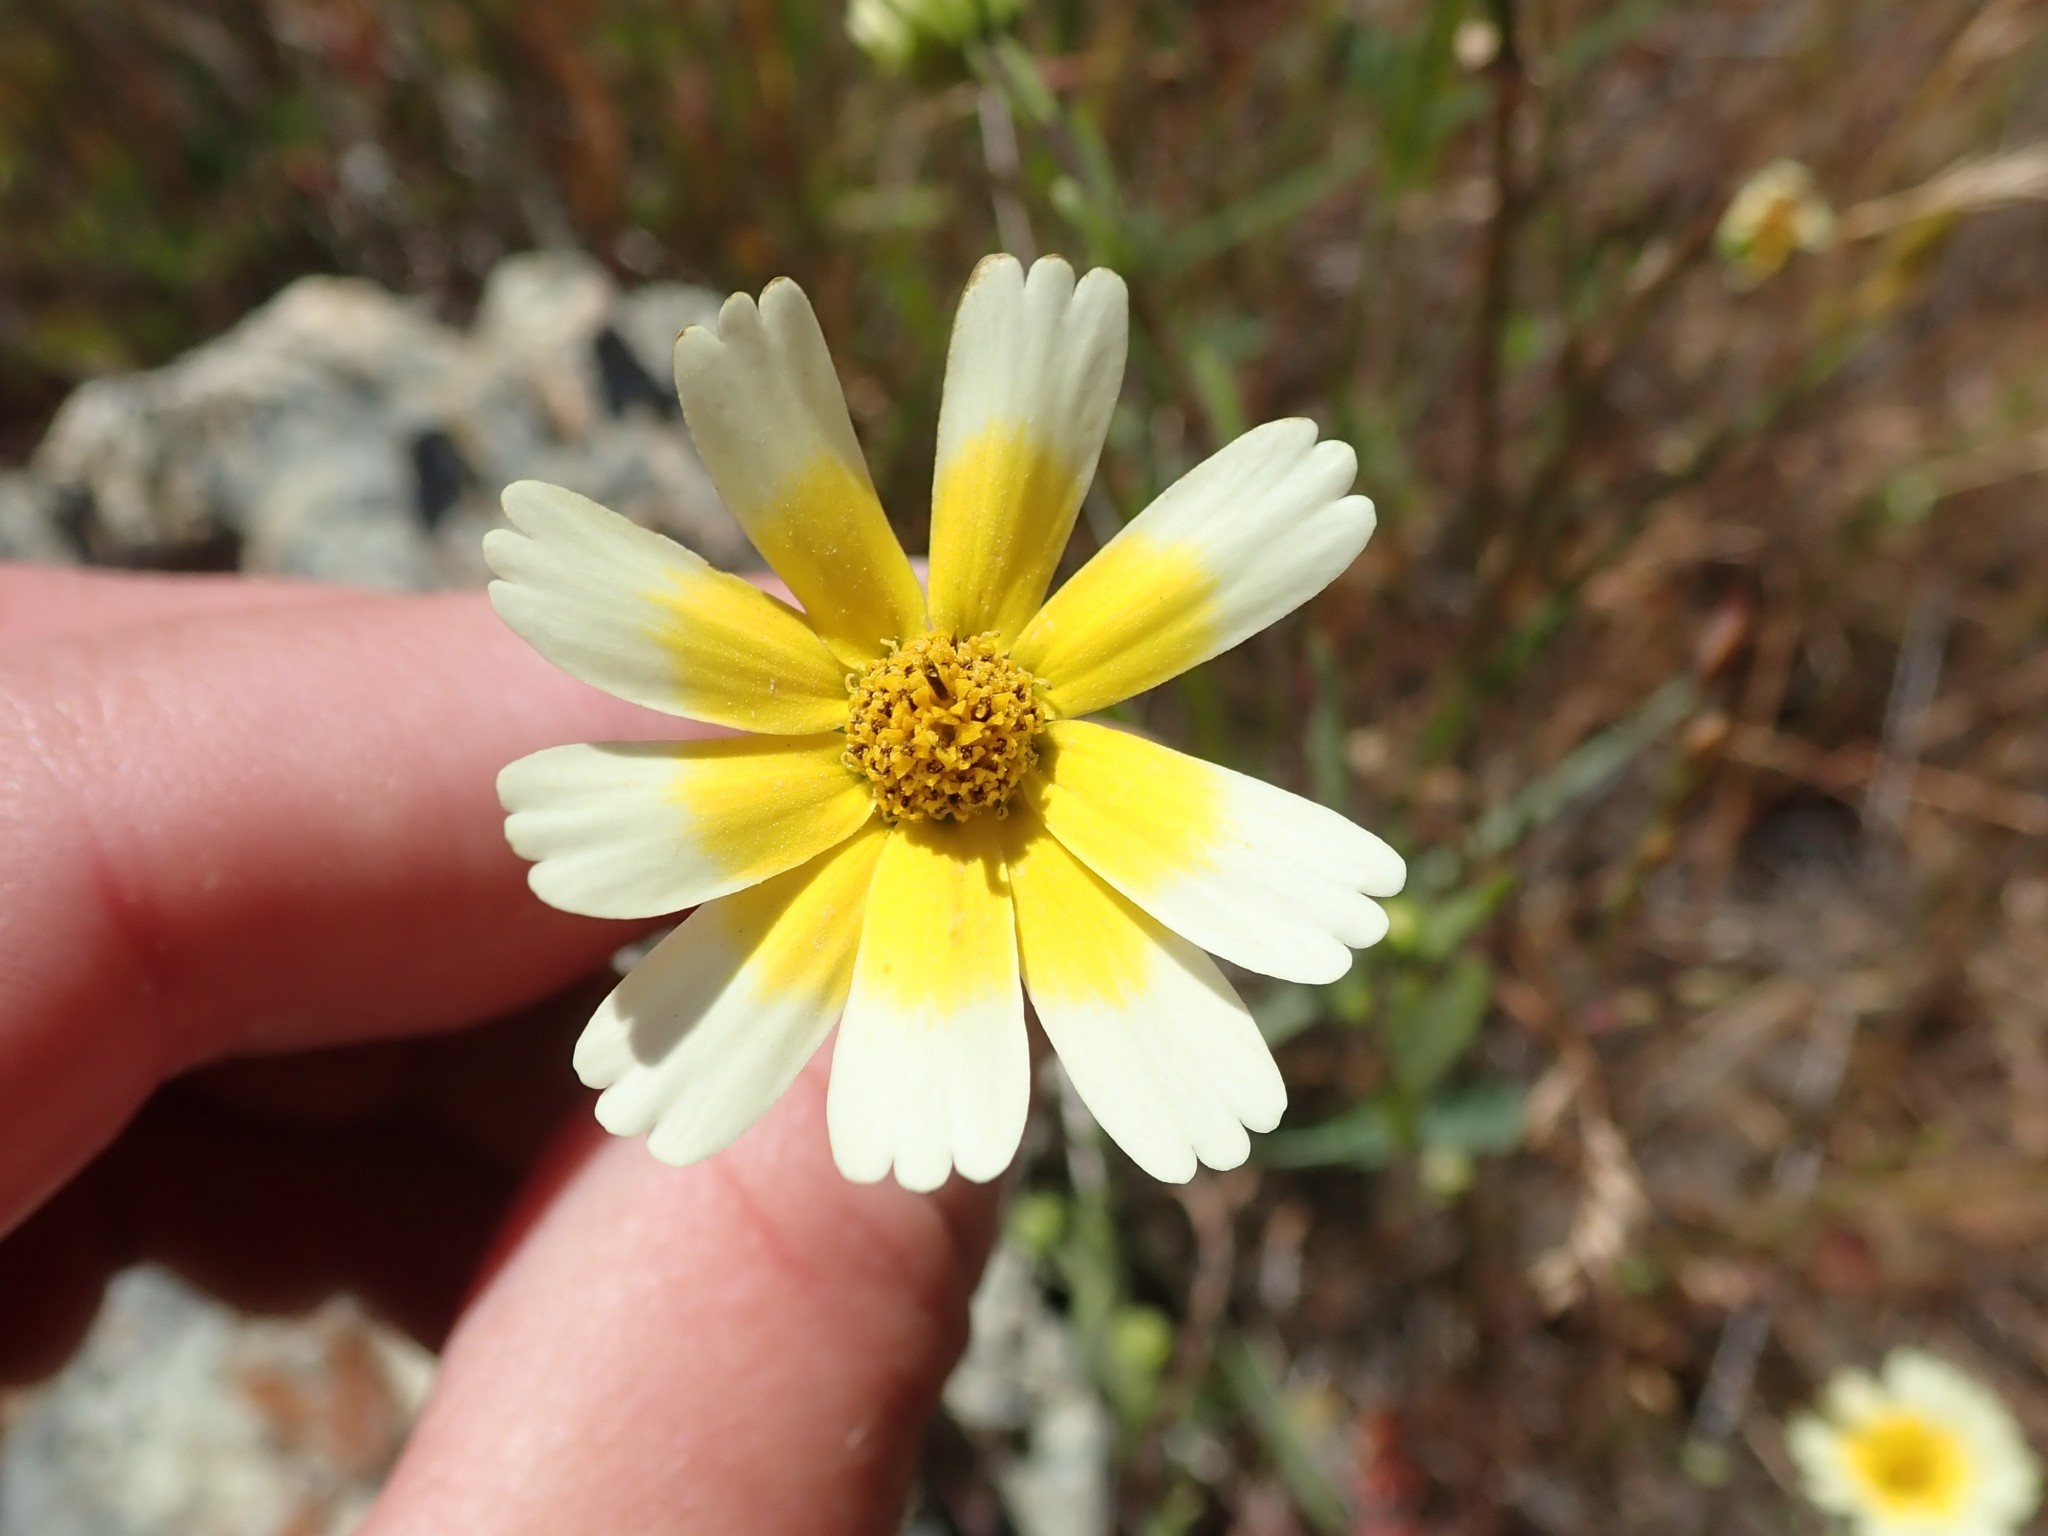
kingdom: Plantae
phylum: Tracheophyta
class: Magnoliopsida
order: Asterales
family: Asteraceae
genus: Layia
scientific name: Layia platyglossa
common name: Tidy-tips
